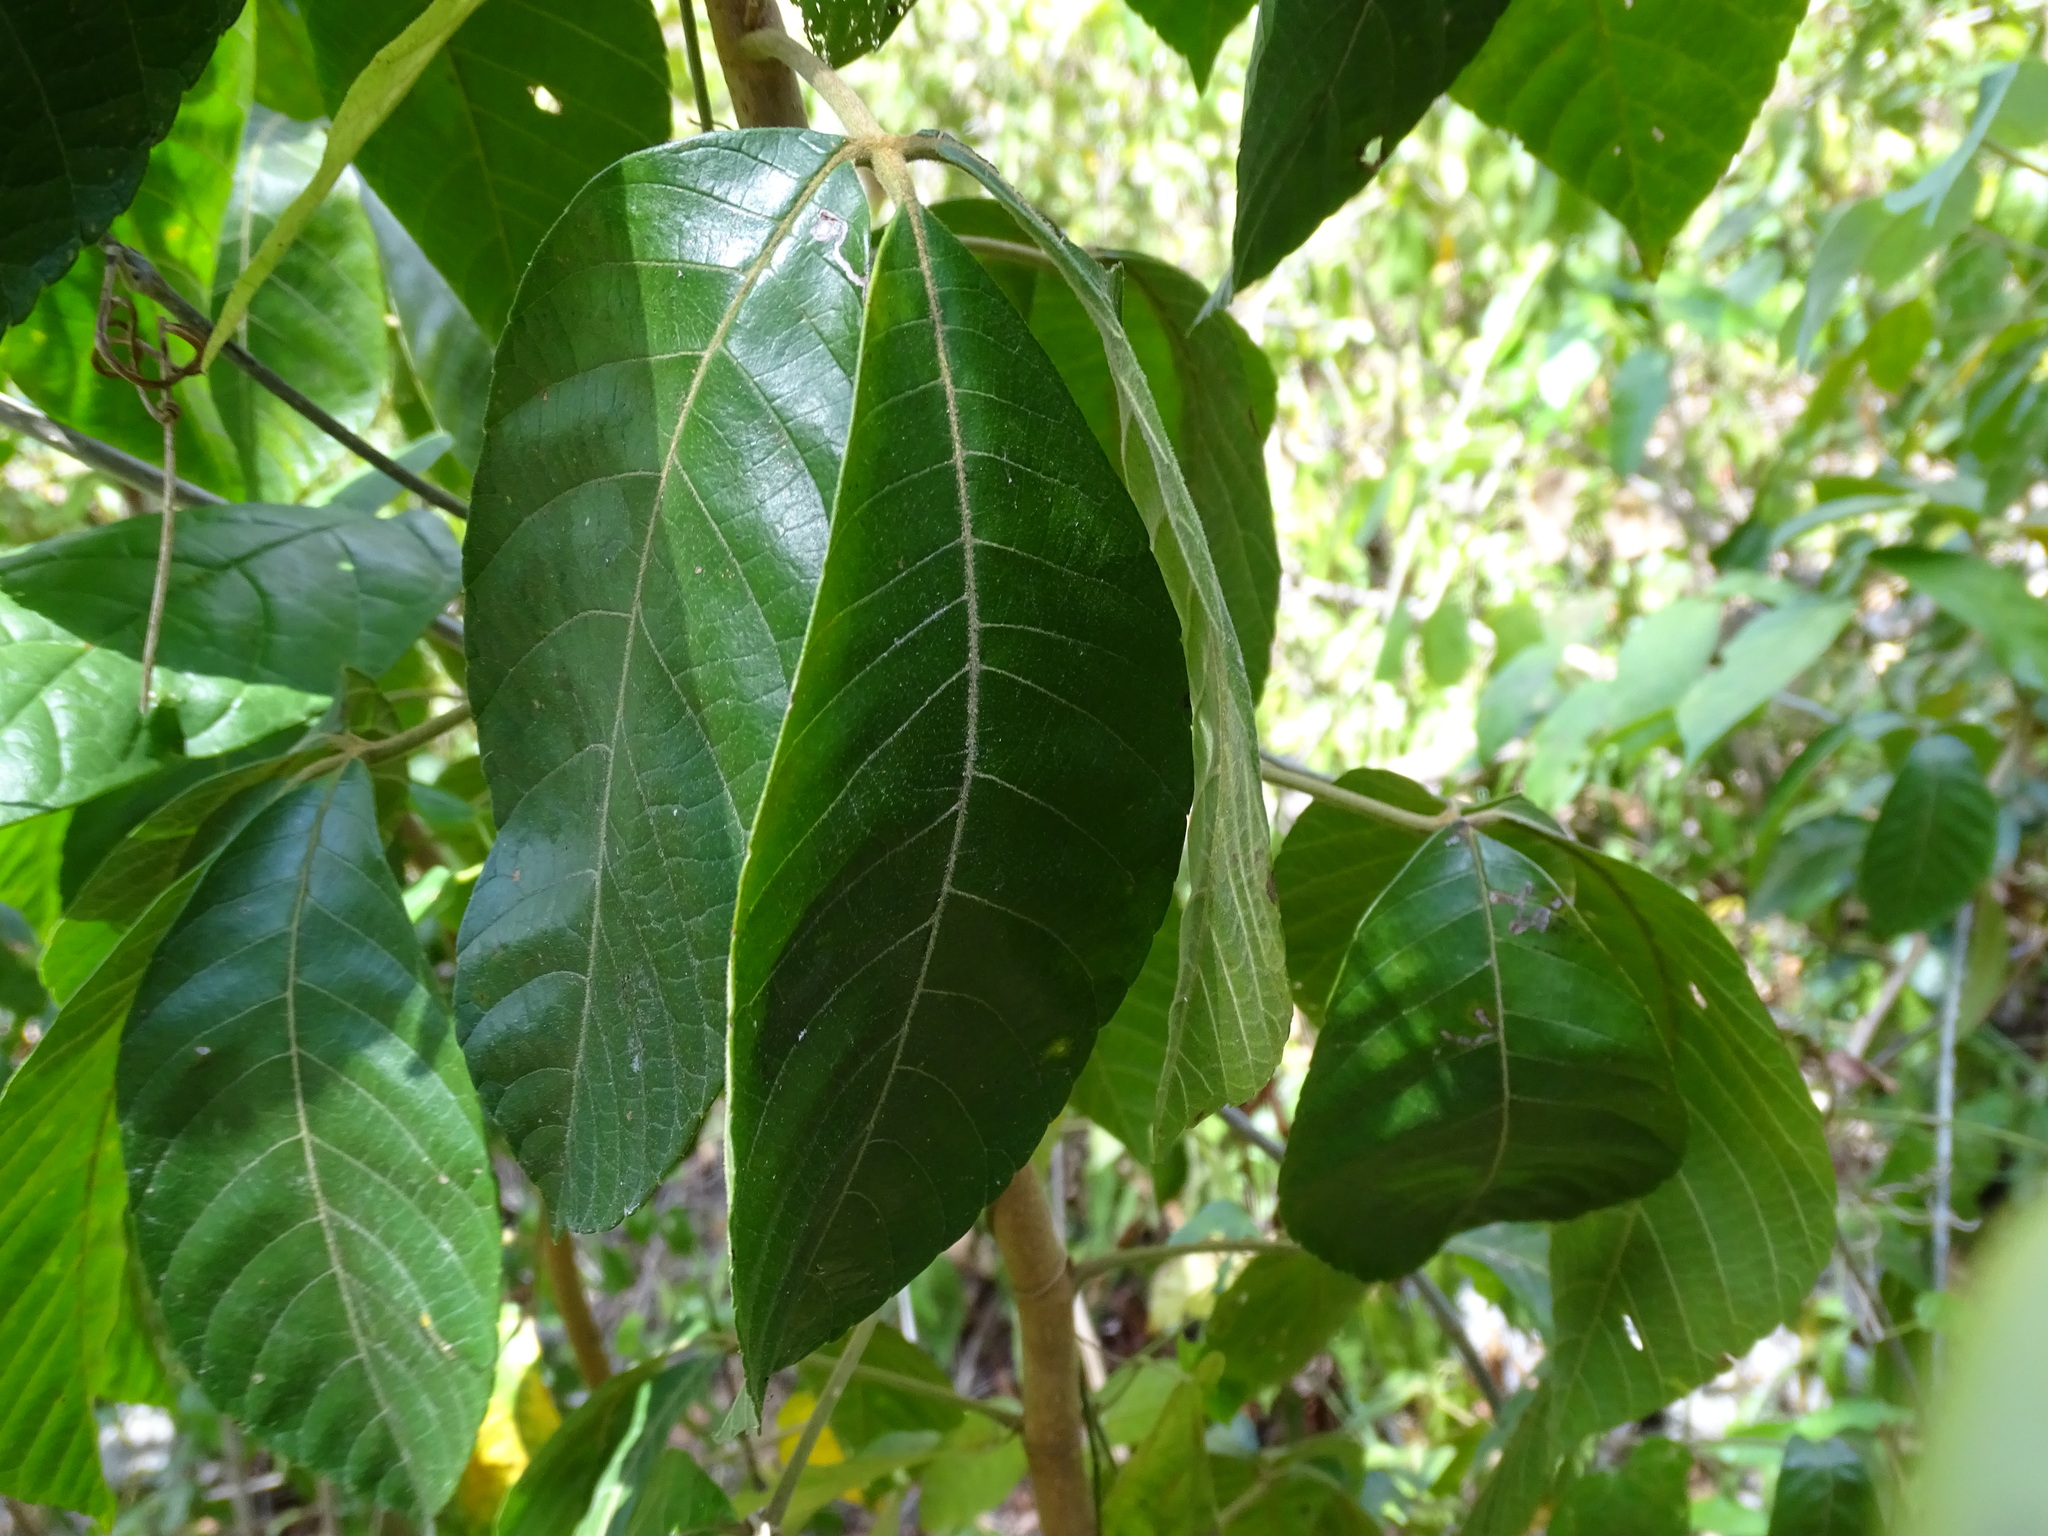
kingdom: Plantae
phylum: Tracheophyta
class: Magnoliopsida
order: Sapindales
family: Sapindaceae
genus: Allophylus
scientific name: Allophylus cominia
